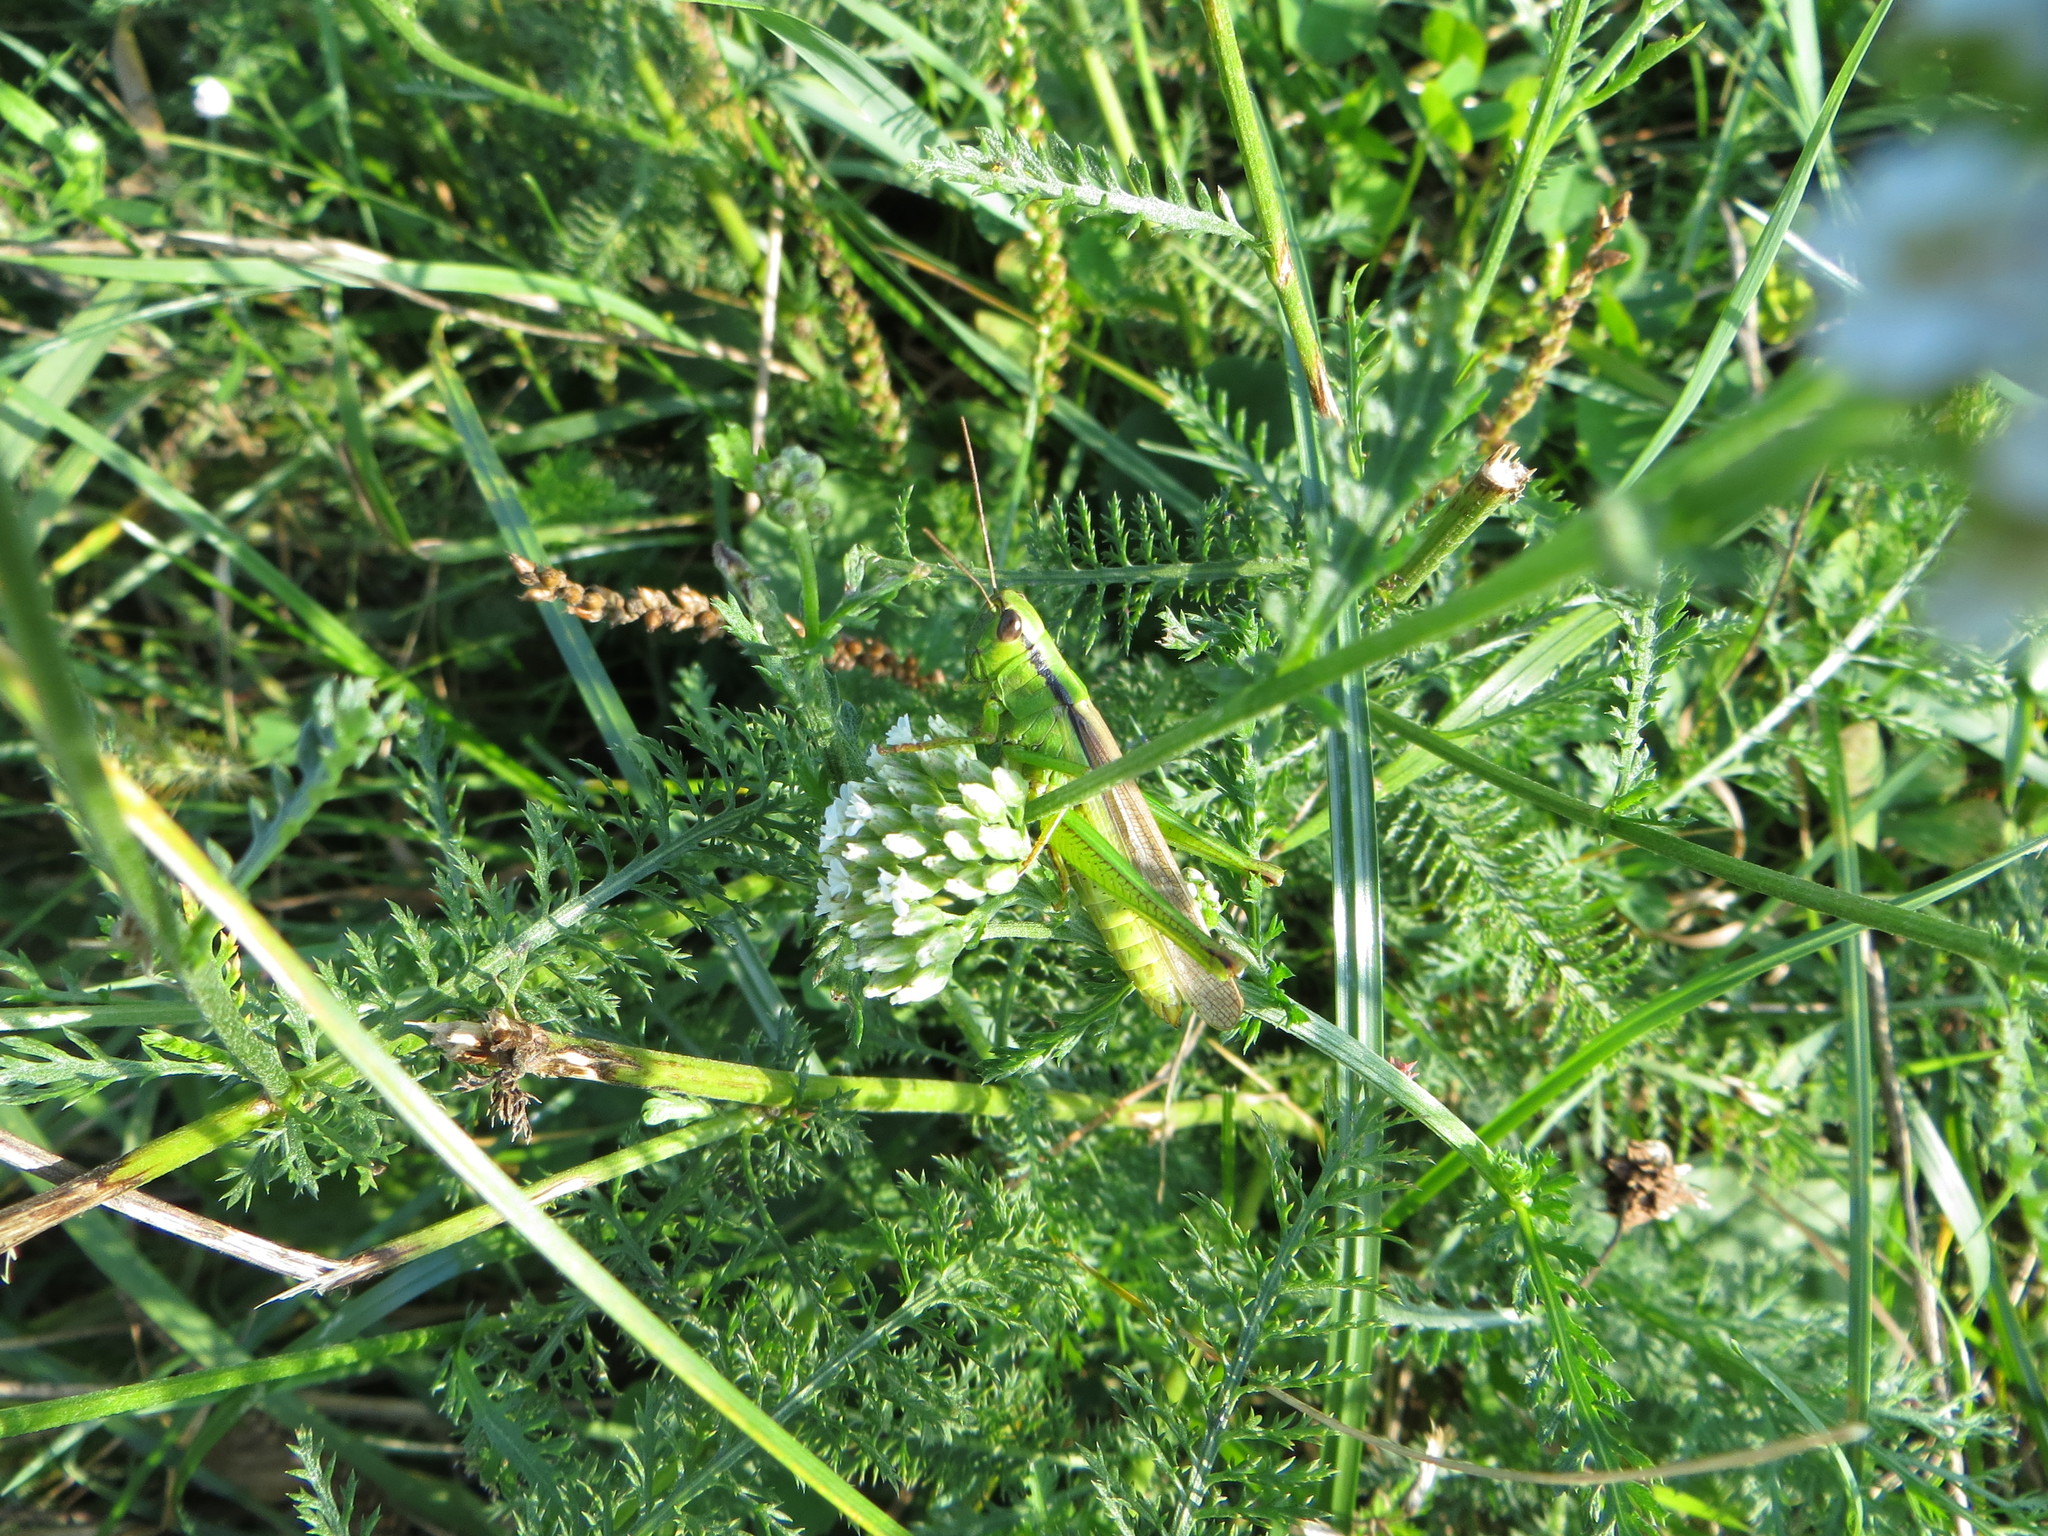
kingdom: Animalia
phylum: Arthropoda
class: Insecta
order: Orthoptera
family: Acrididae
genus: Mecostethus
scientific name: Mecostethus parapleurus
